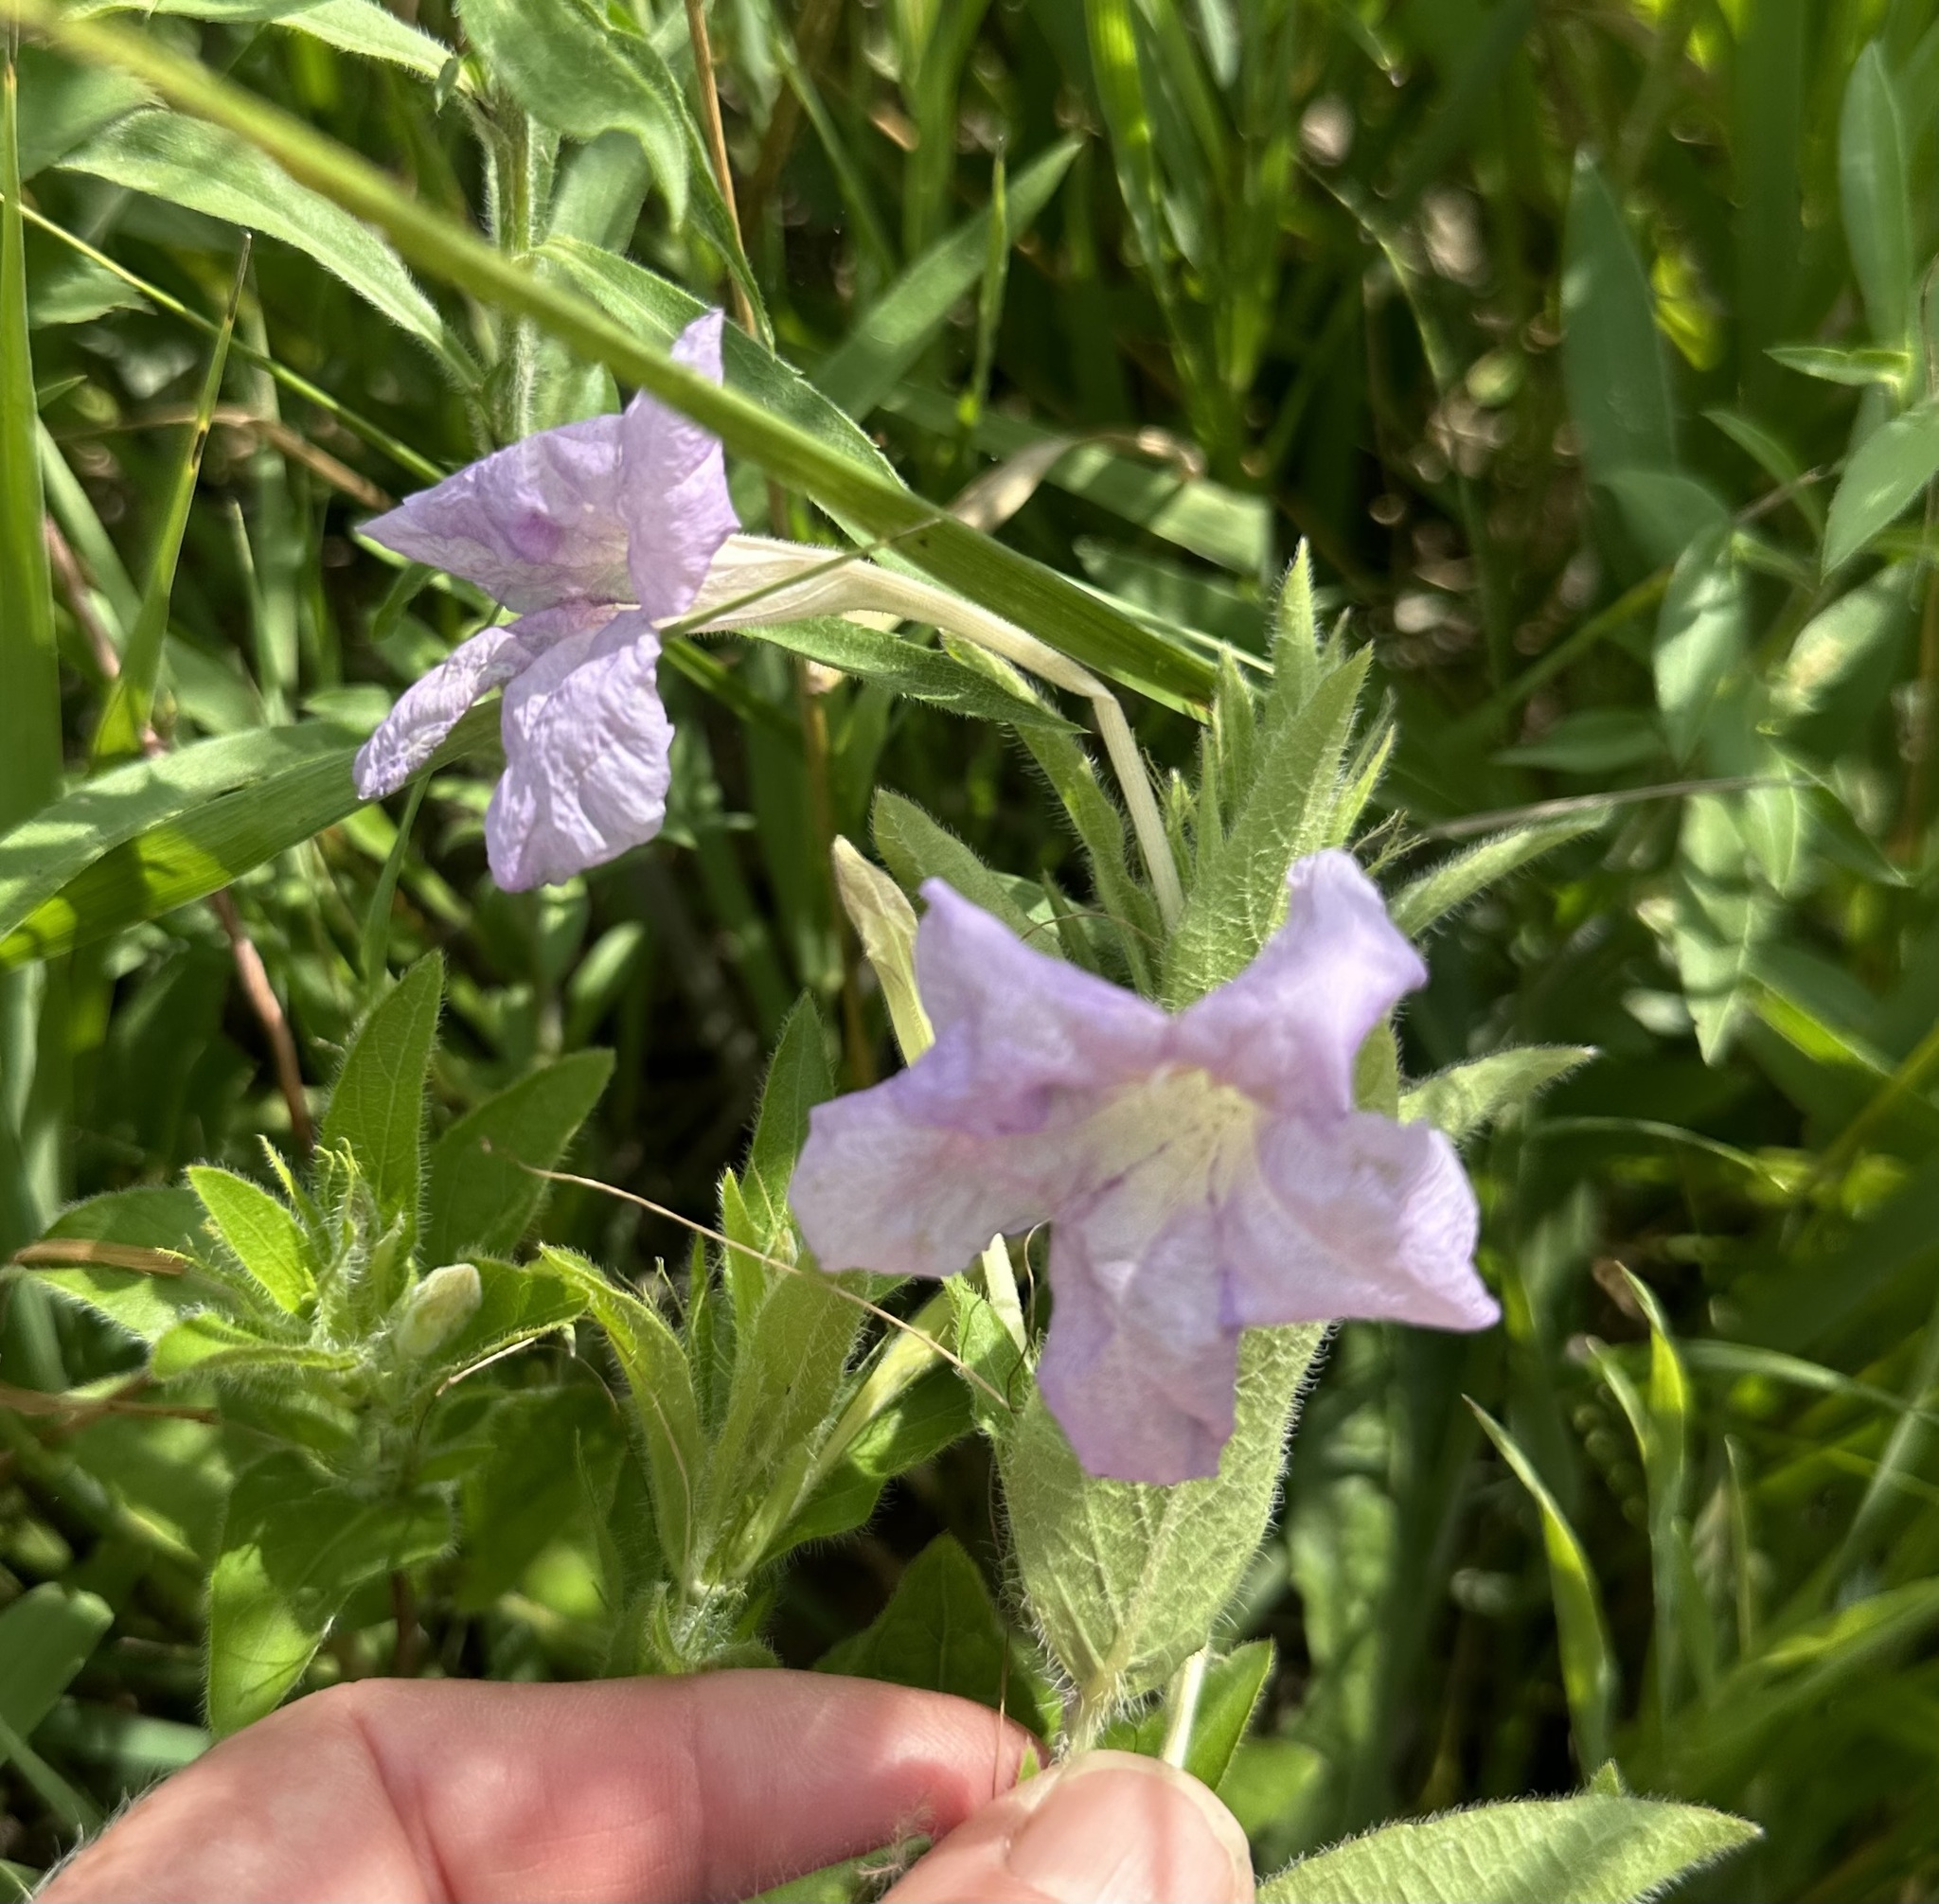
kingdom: Plantae
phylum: Tracheophyta
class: Magnoliopsida
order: Lamiales
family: Acanthaceae
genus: Ruellia
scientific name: Ruellia humilis
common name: Fringe-leaf ruellia
